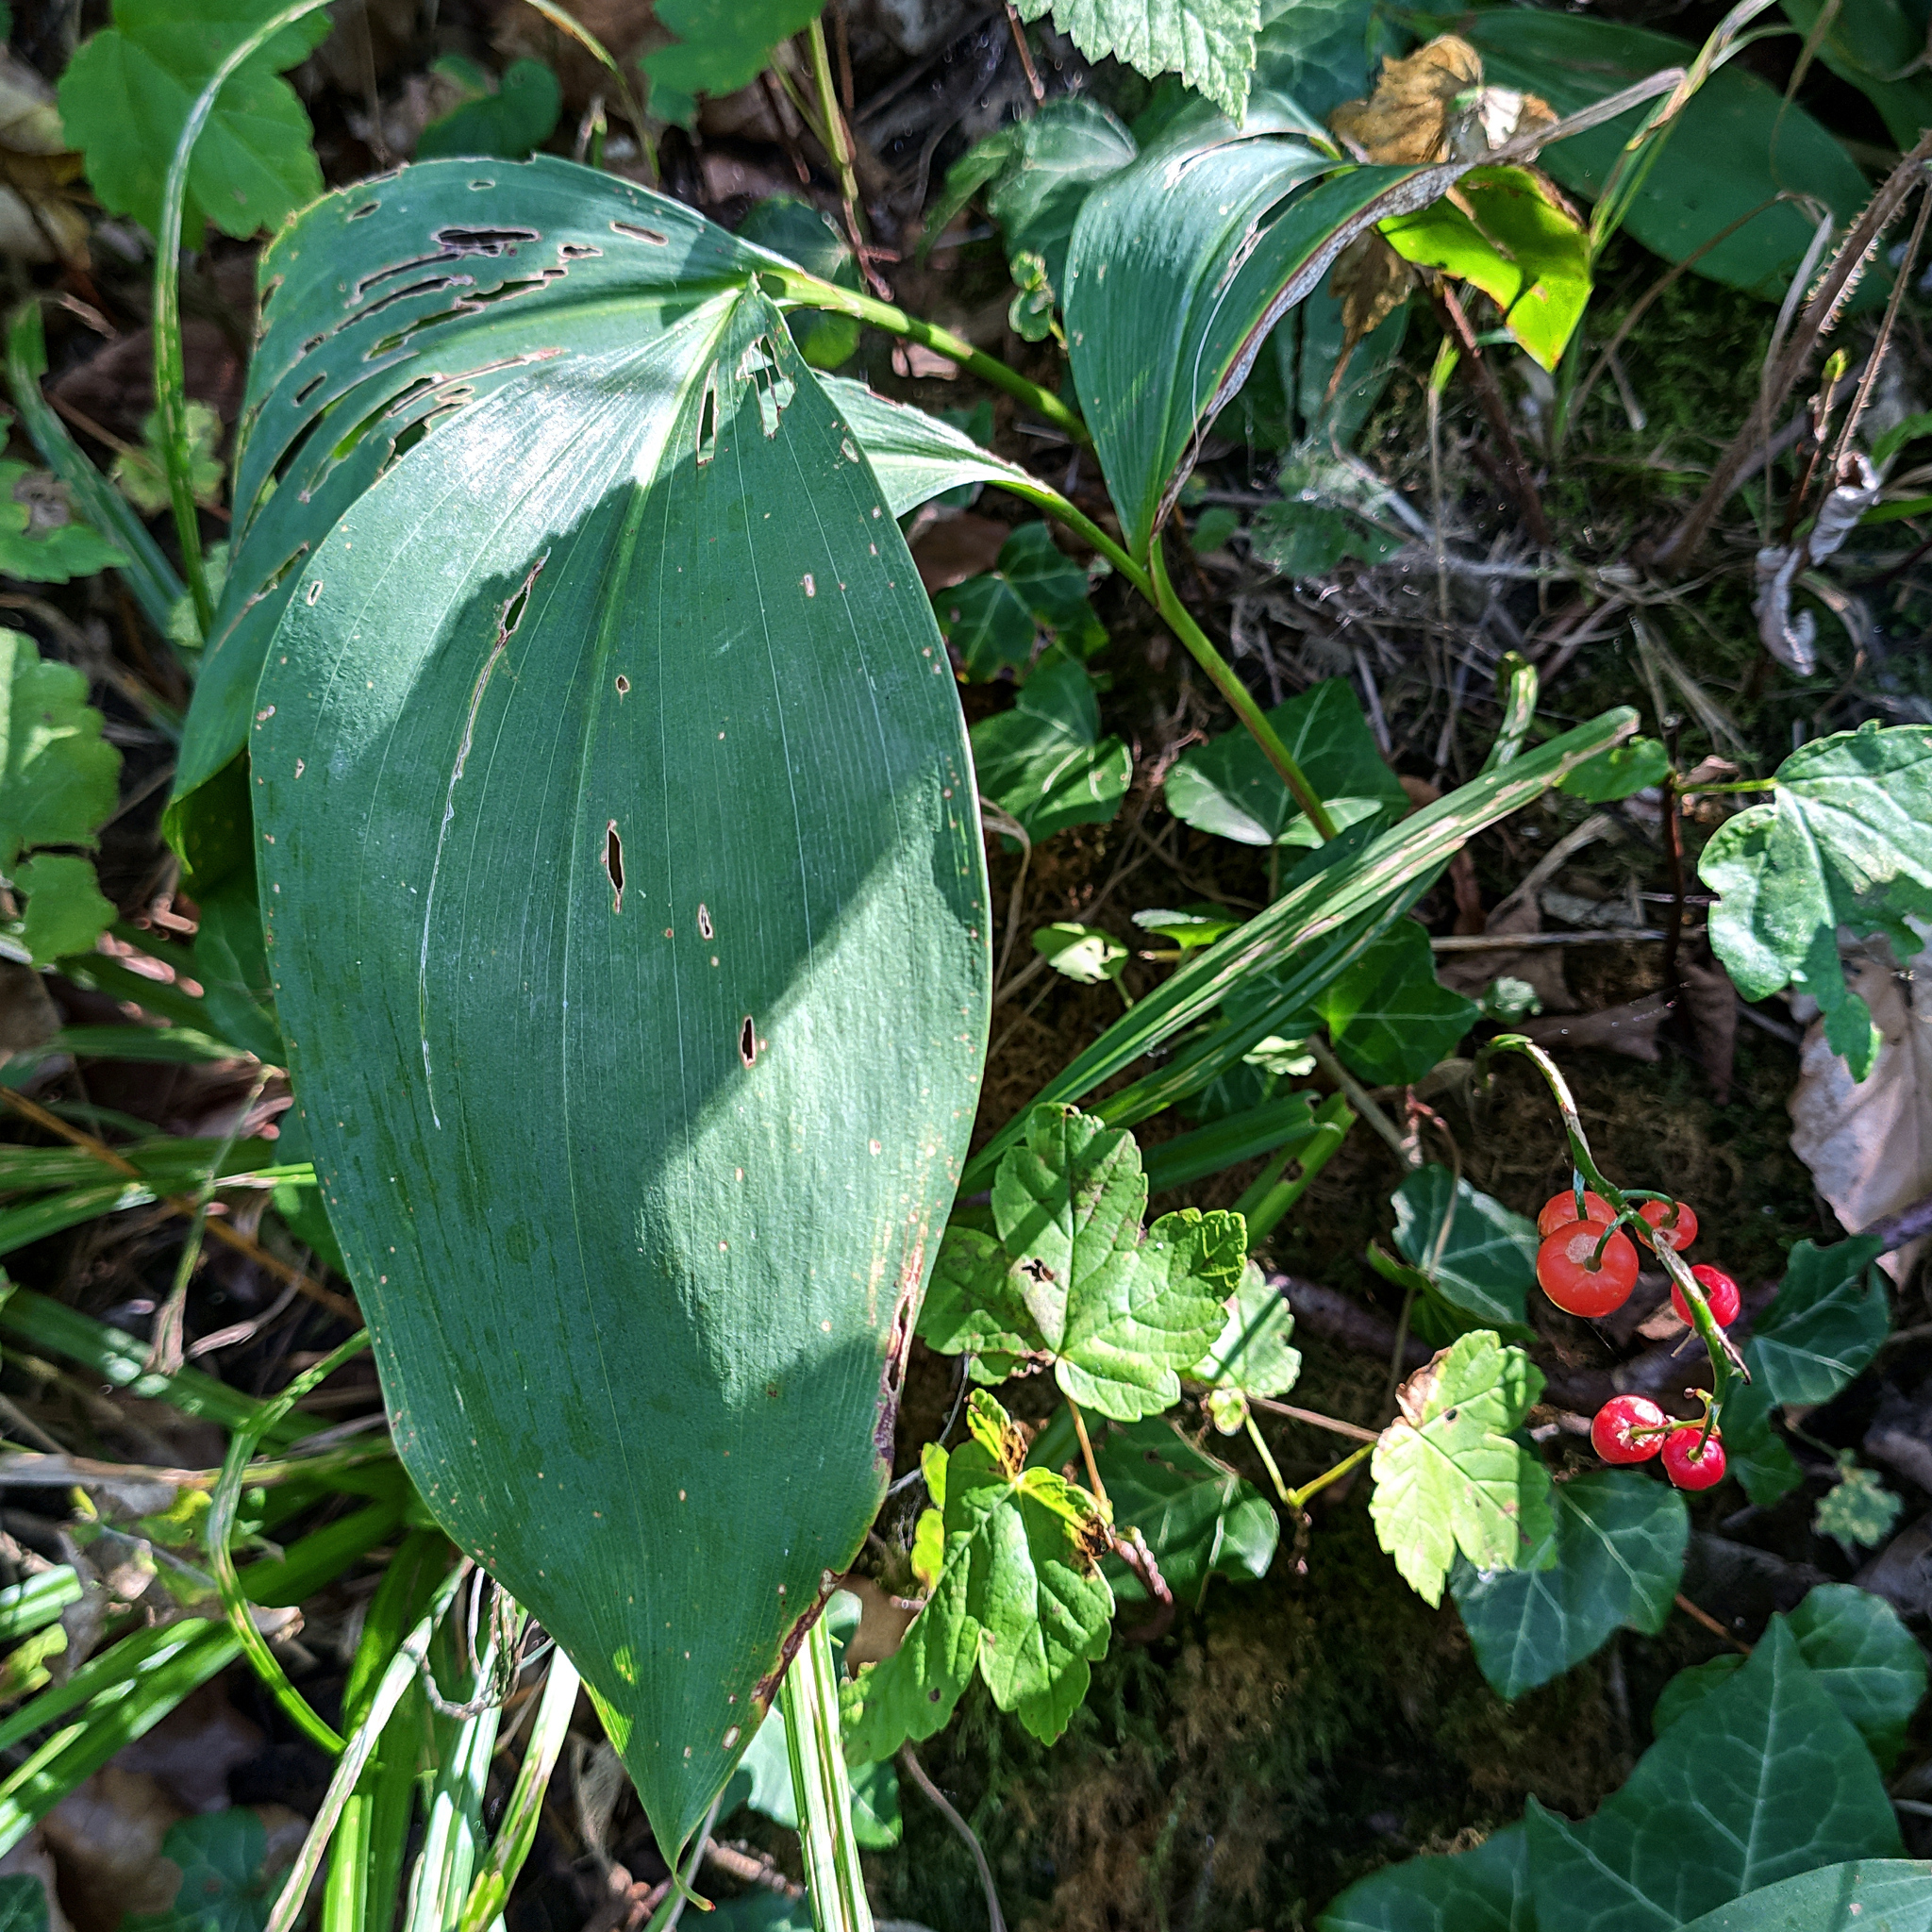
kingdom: Plantae
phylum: Tracheophyta
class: Liliopsida
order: Asparagales
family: Asparagaceae
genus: Convallaria
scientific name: Convallaria majalis
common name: Lily-of-the-valley
